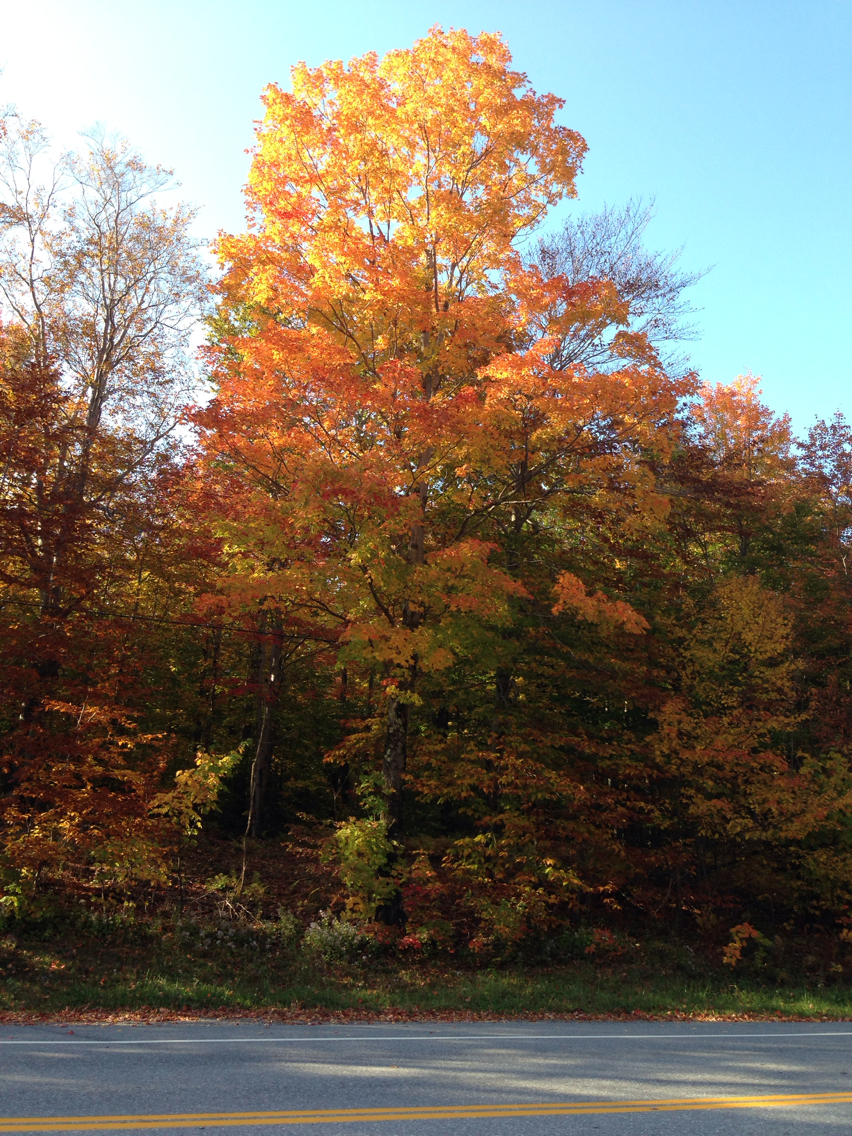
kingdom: Plantae
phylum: Tracheophyta
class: Magnoliopsida
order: Sapindales
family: Sapindaceae
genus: Acer
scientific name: Acer saccharum
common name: Sugar maple
